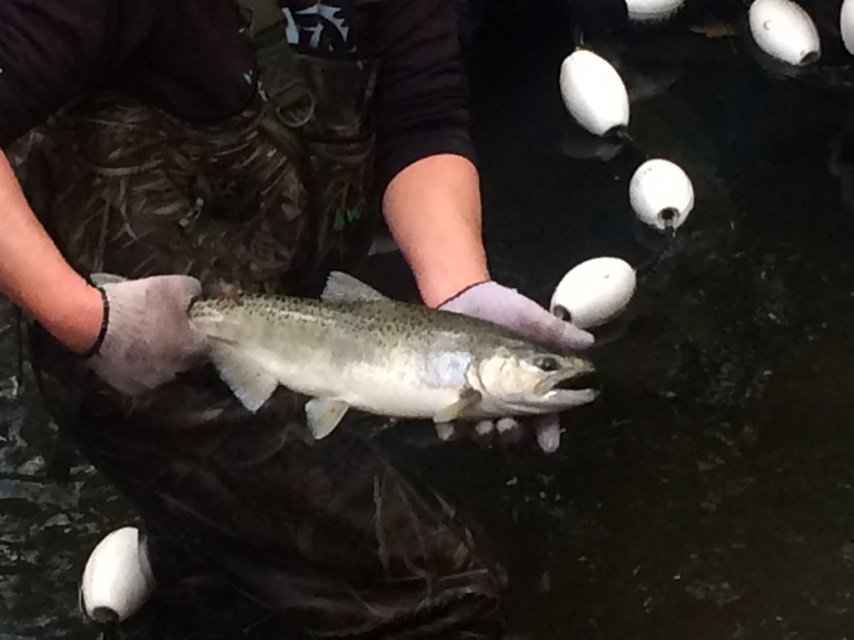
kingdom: Animalia
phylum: Chordata
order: Salmoniformes
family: Salmonidae
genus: Oncorhynchus
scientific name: Oncorhynchus tshawytscha
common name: Chinook salmon
